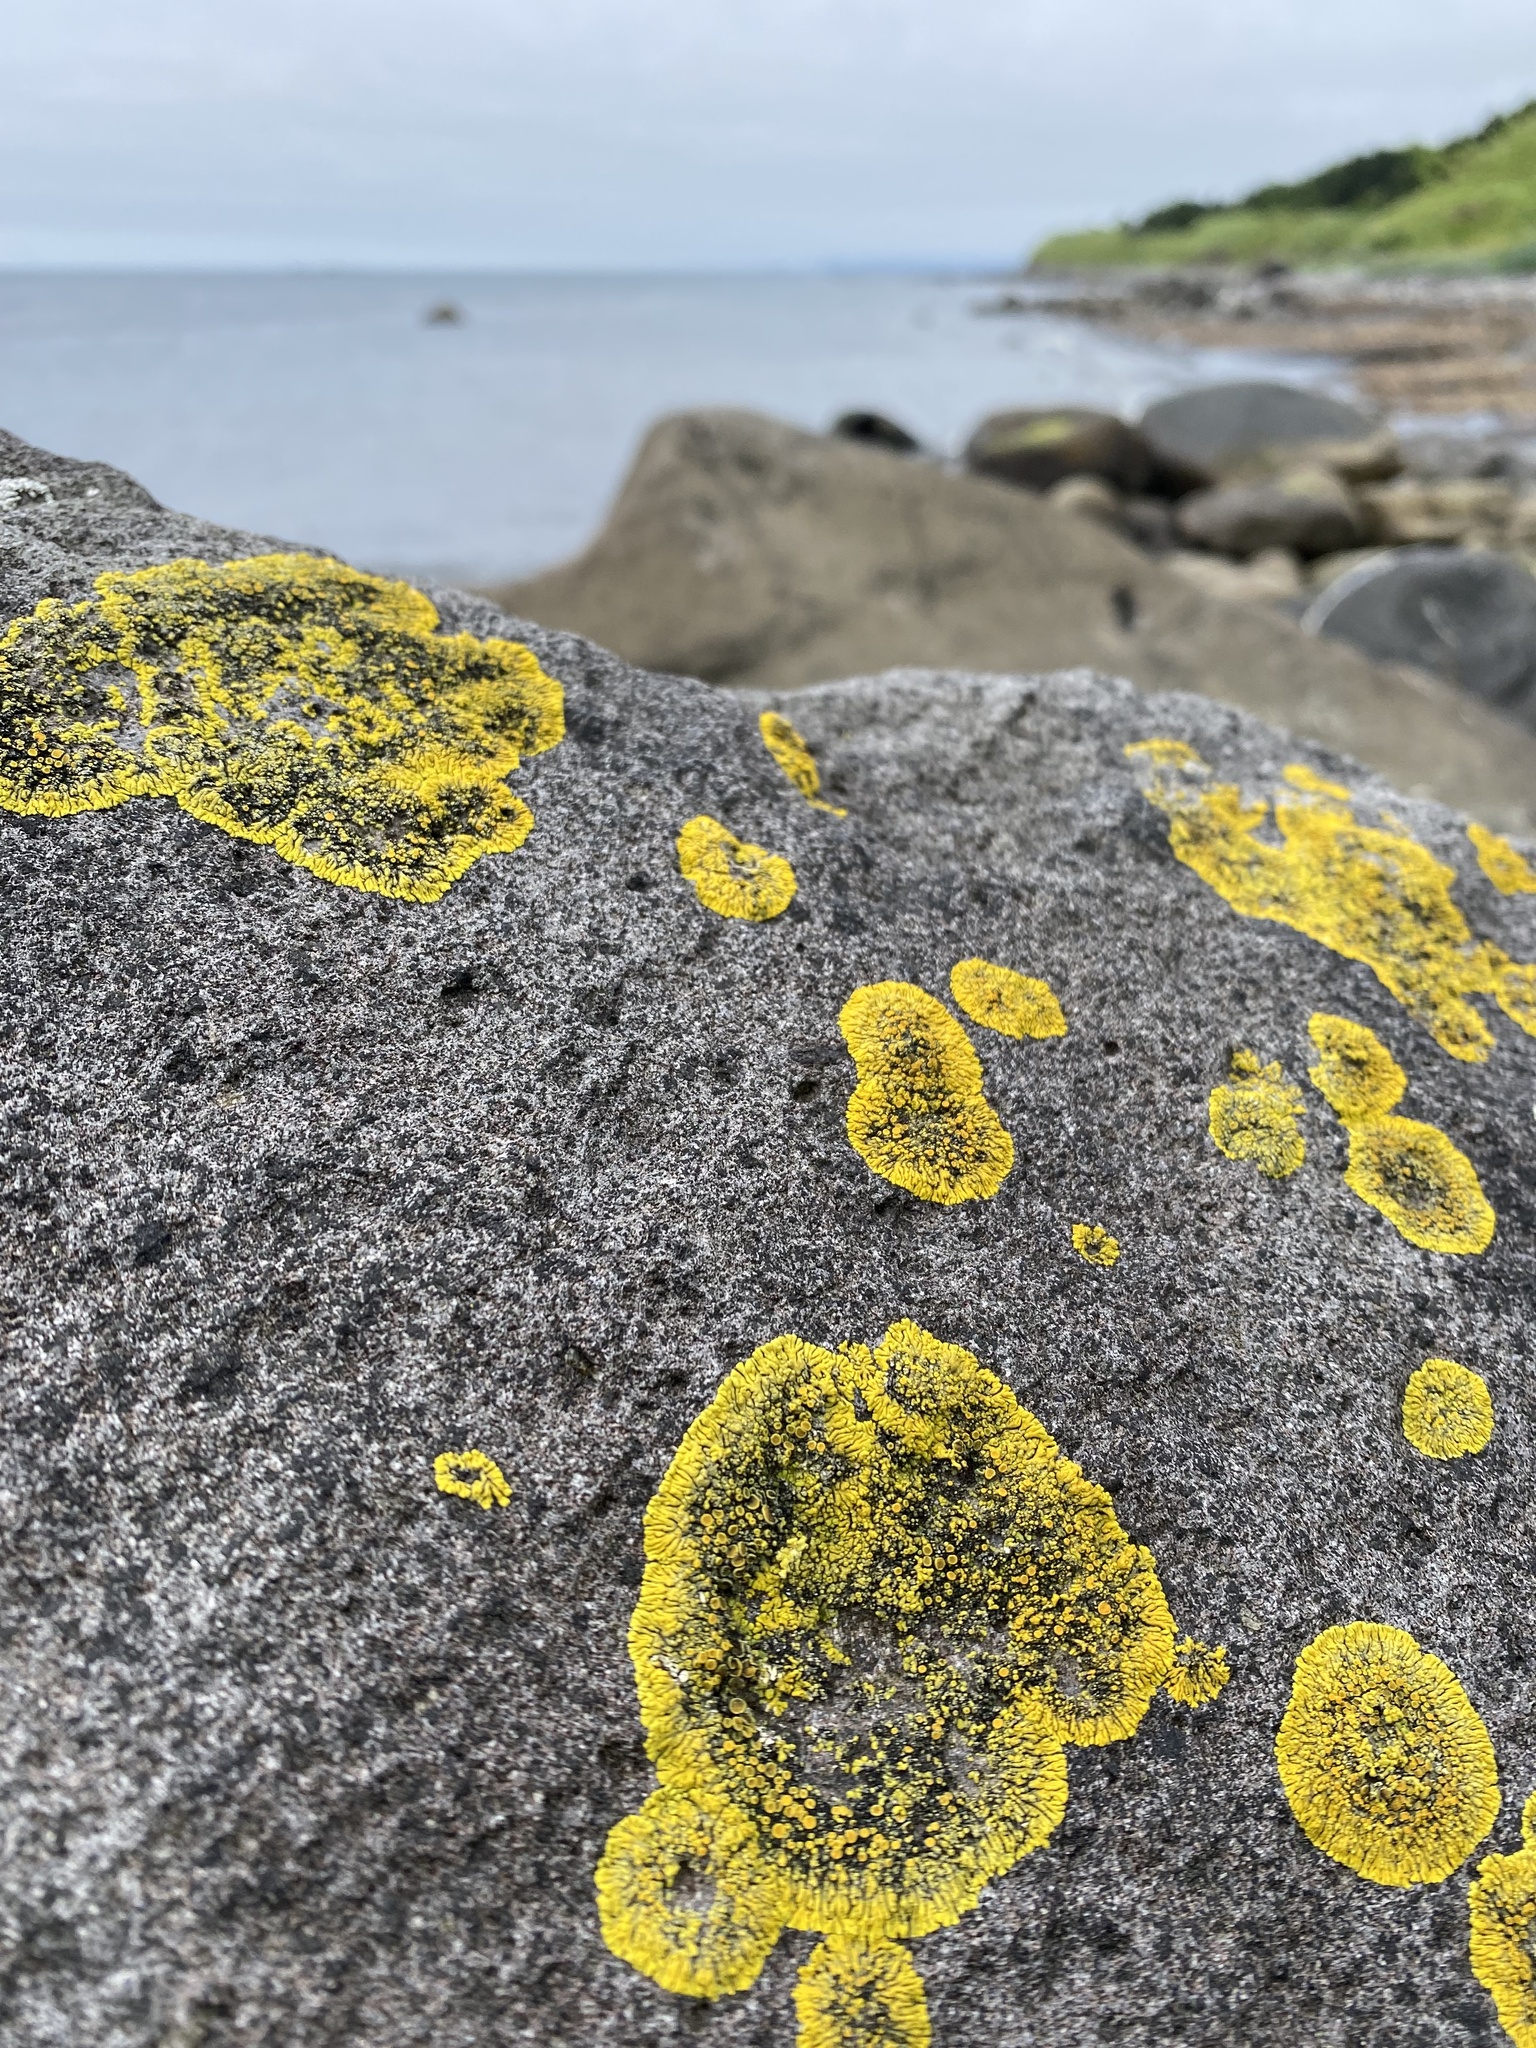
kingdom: Fungi
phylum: Ascomycota
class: Lecanoromycetes
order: Teloschistales
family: Teloschistaceae
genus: Caloplaca
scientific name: Caloplaca
